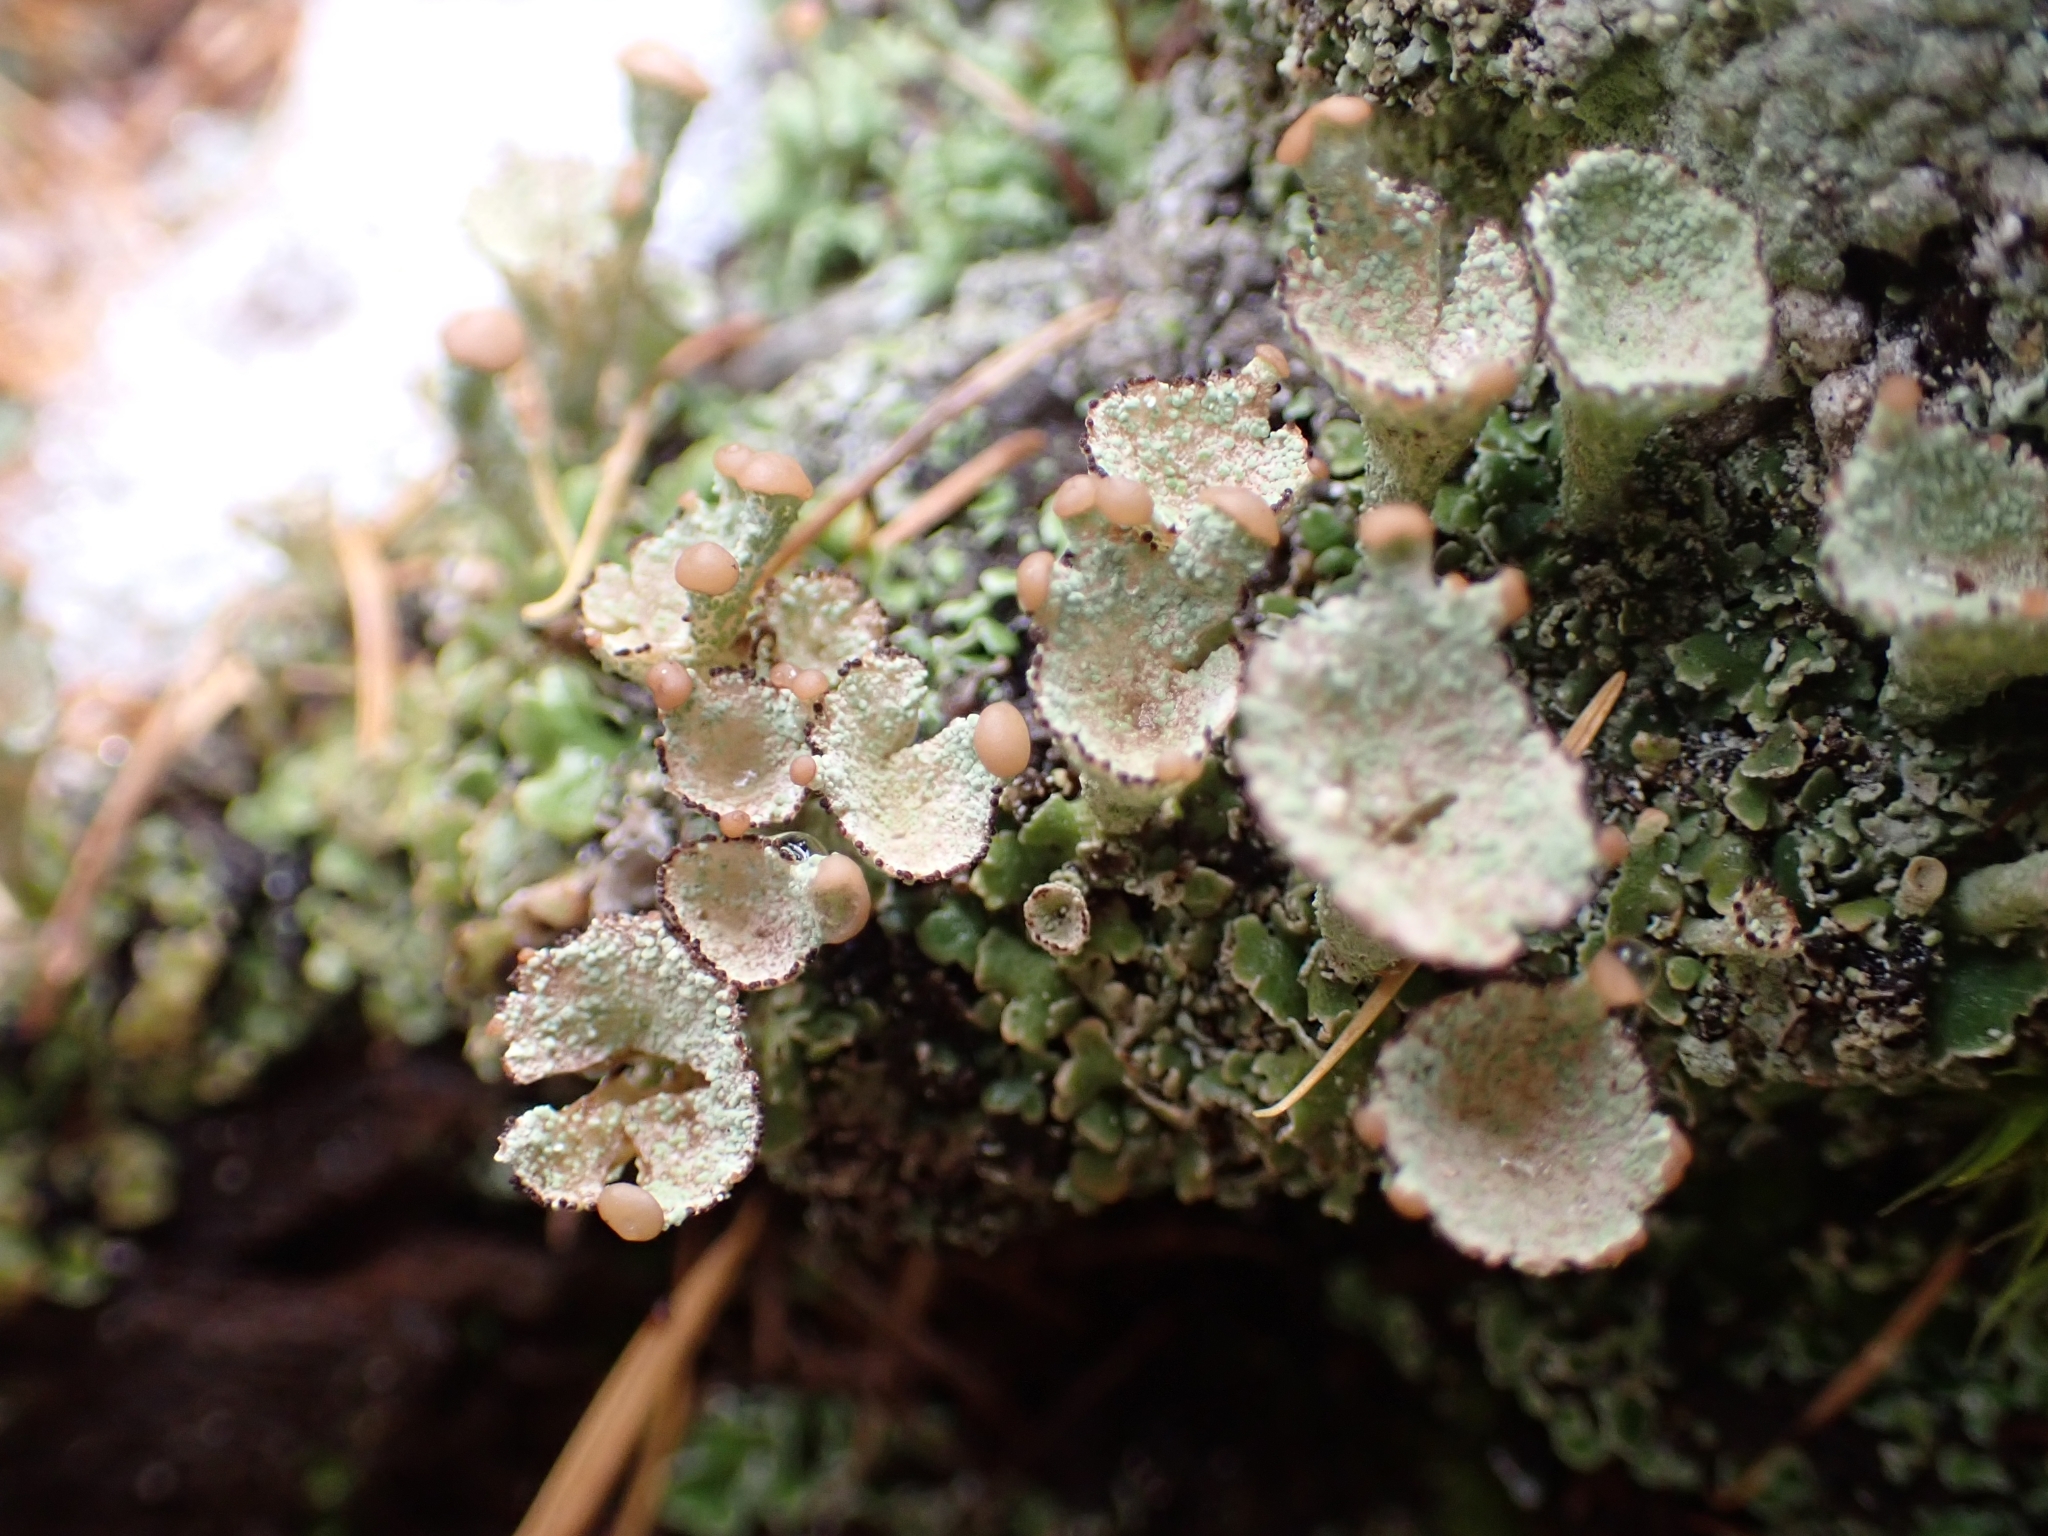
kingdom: Fungi
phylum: Ascomycota
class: Lecanoromycetes
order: Lecanorales
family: Cladoniaceae
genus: Cladonia
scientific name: Cladonia pyxidata
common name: Pebbled pixie cup
